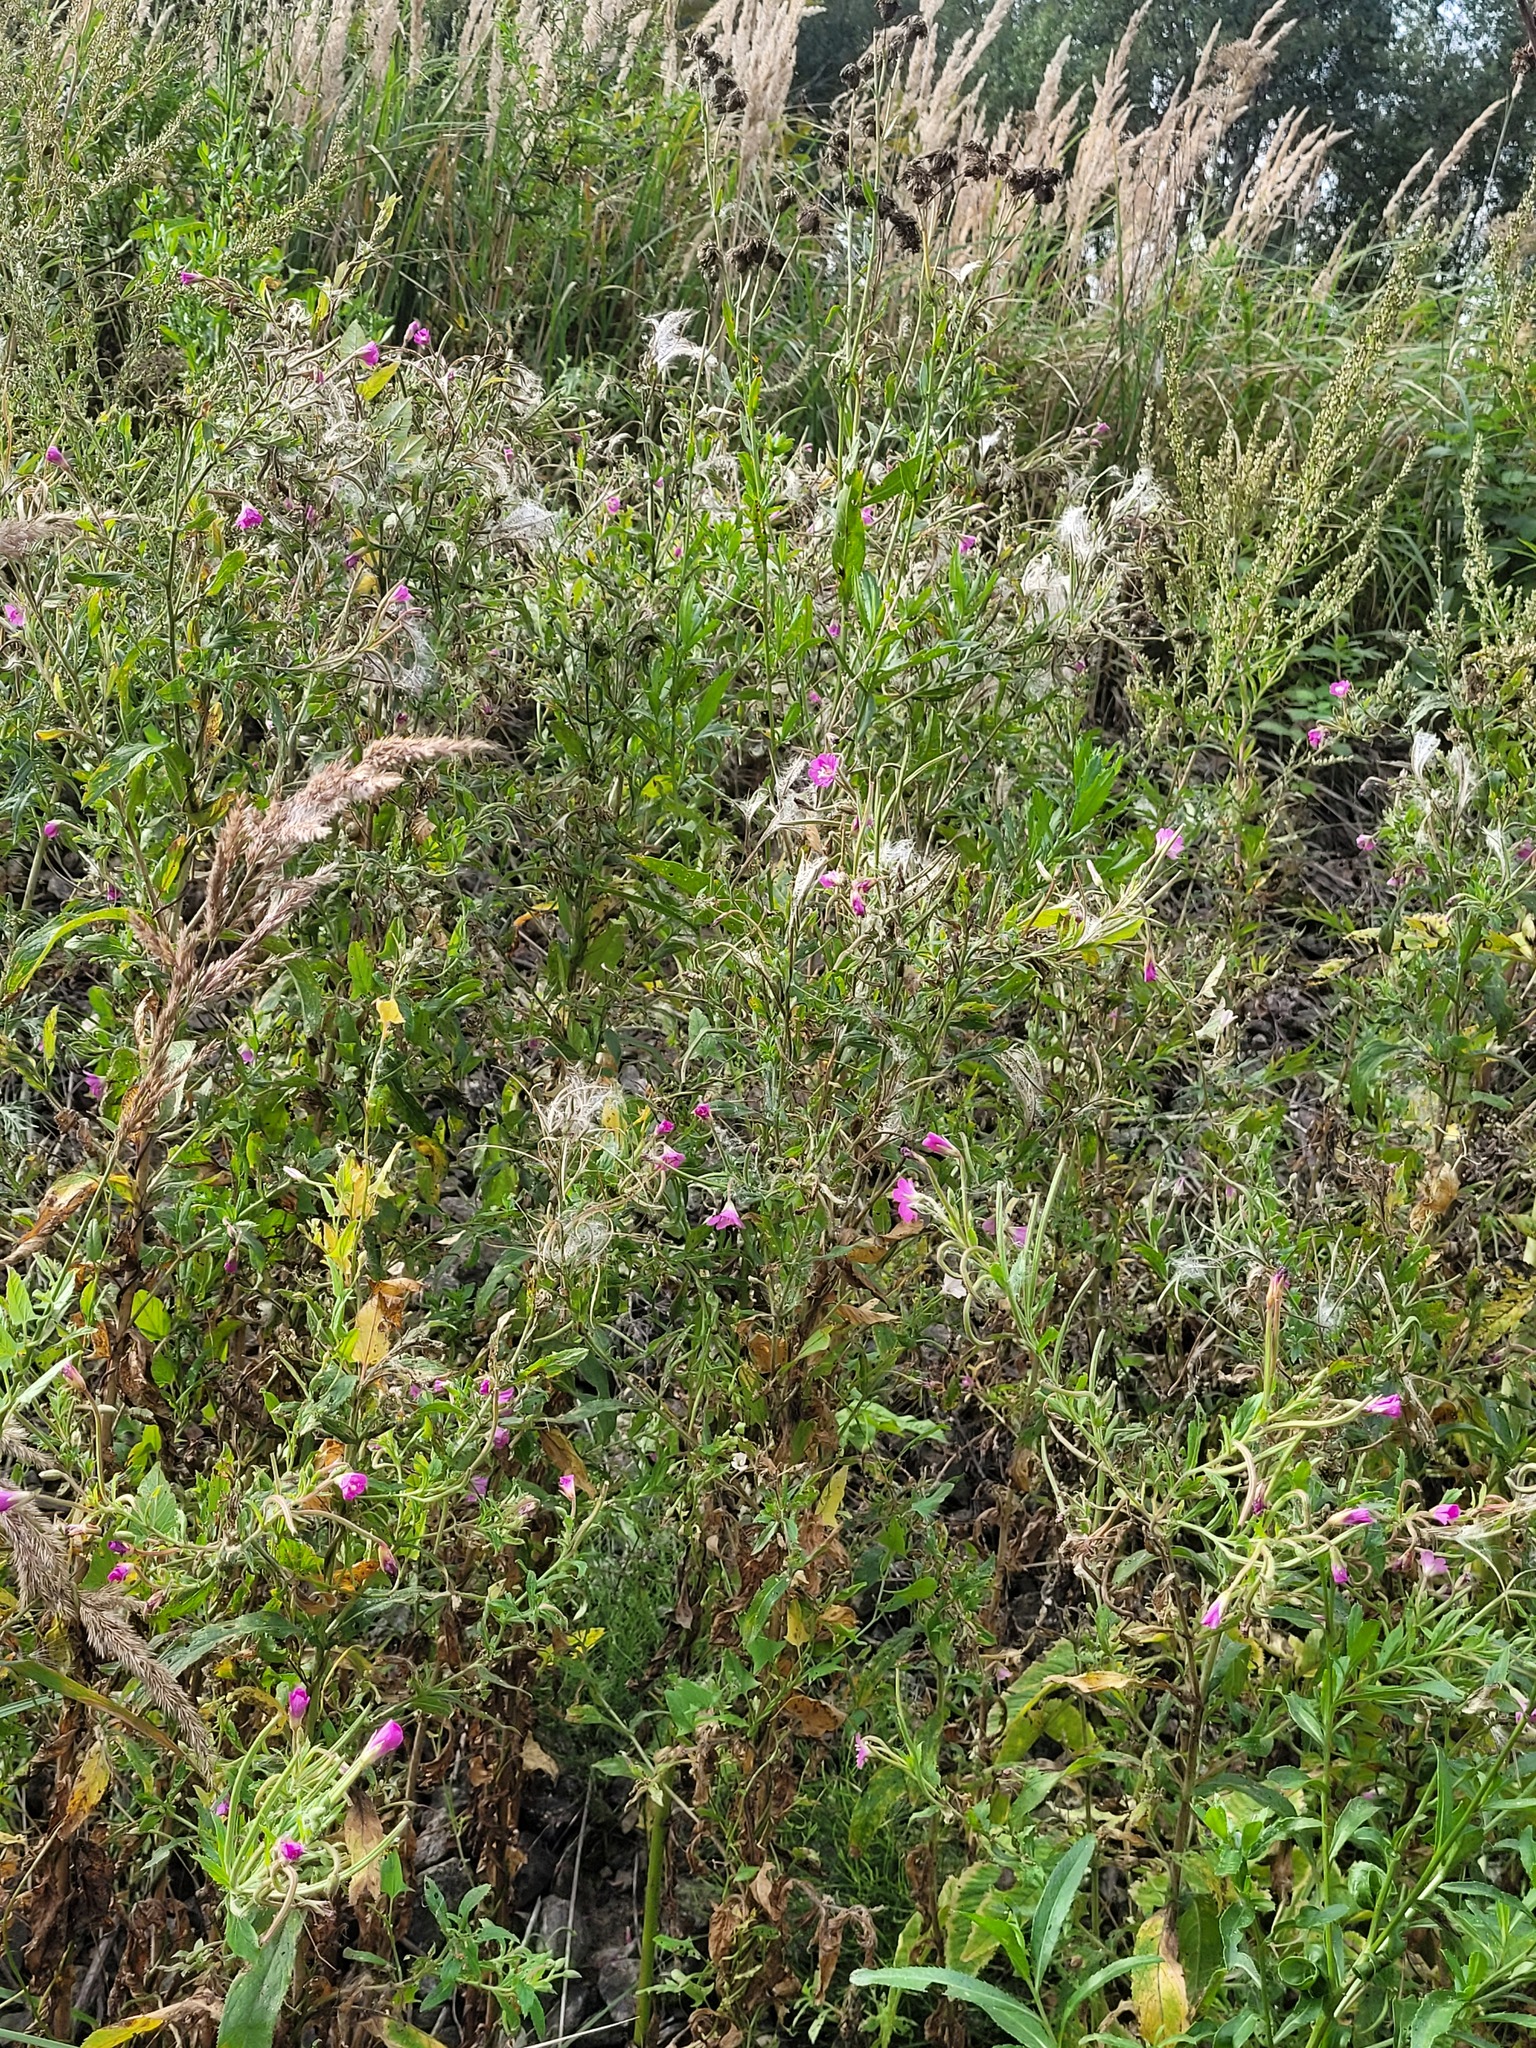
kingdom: Plantae
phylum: Tracheophyta
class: Magnoliopsida
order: Myrtales
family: Onagraceae
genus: Epilobium
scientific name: Epilobium hirsutum
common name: Great willowherb
